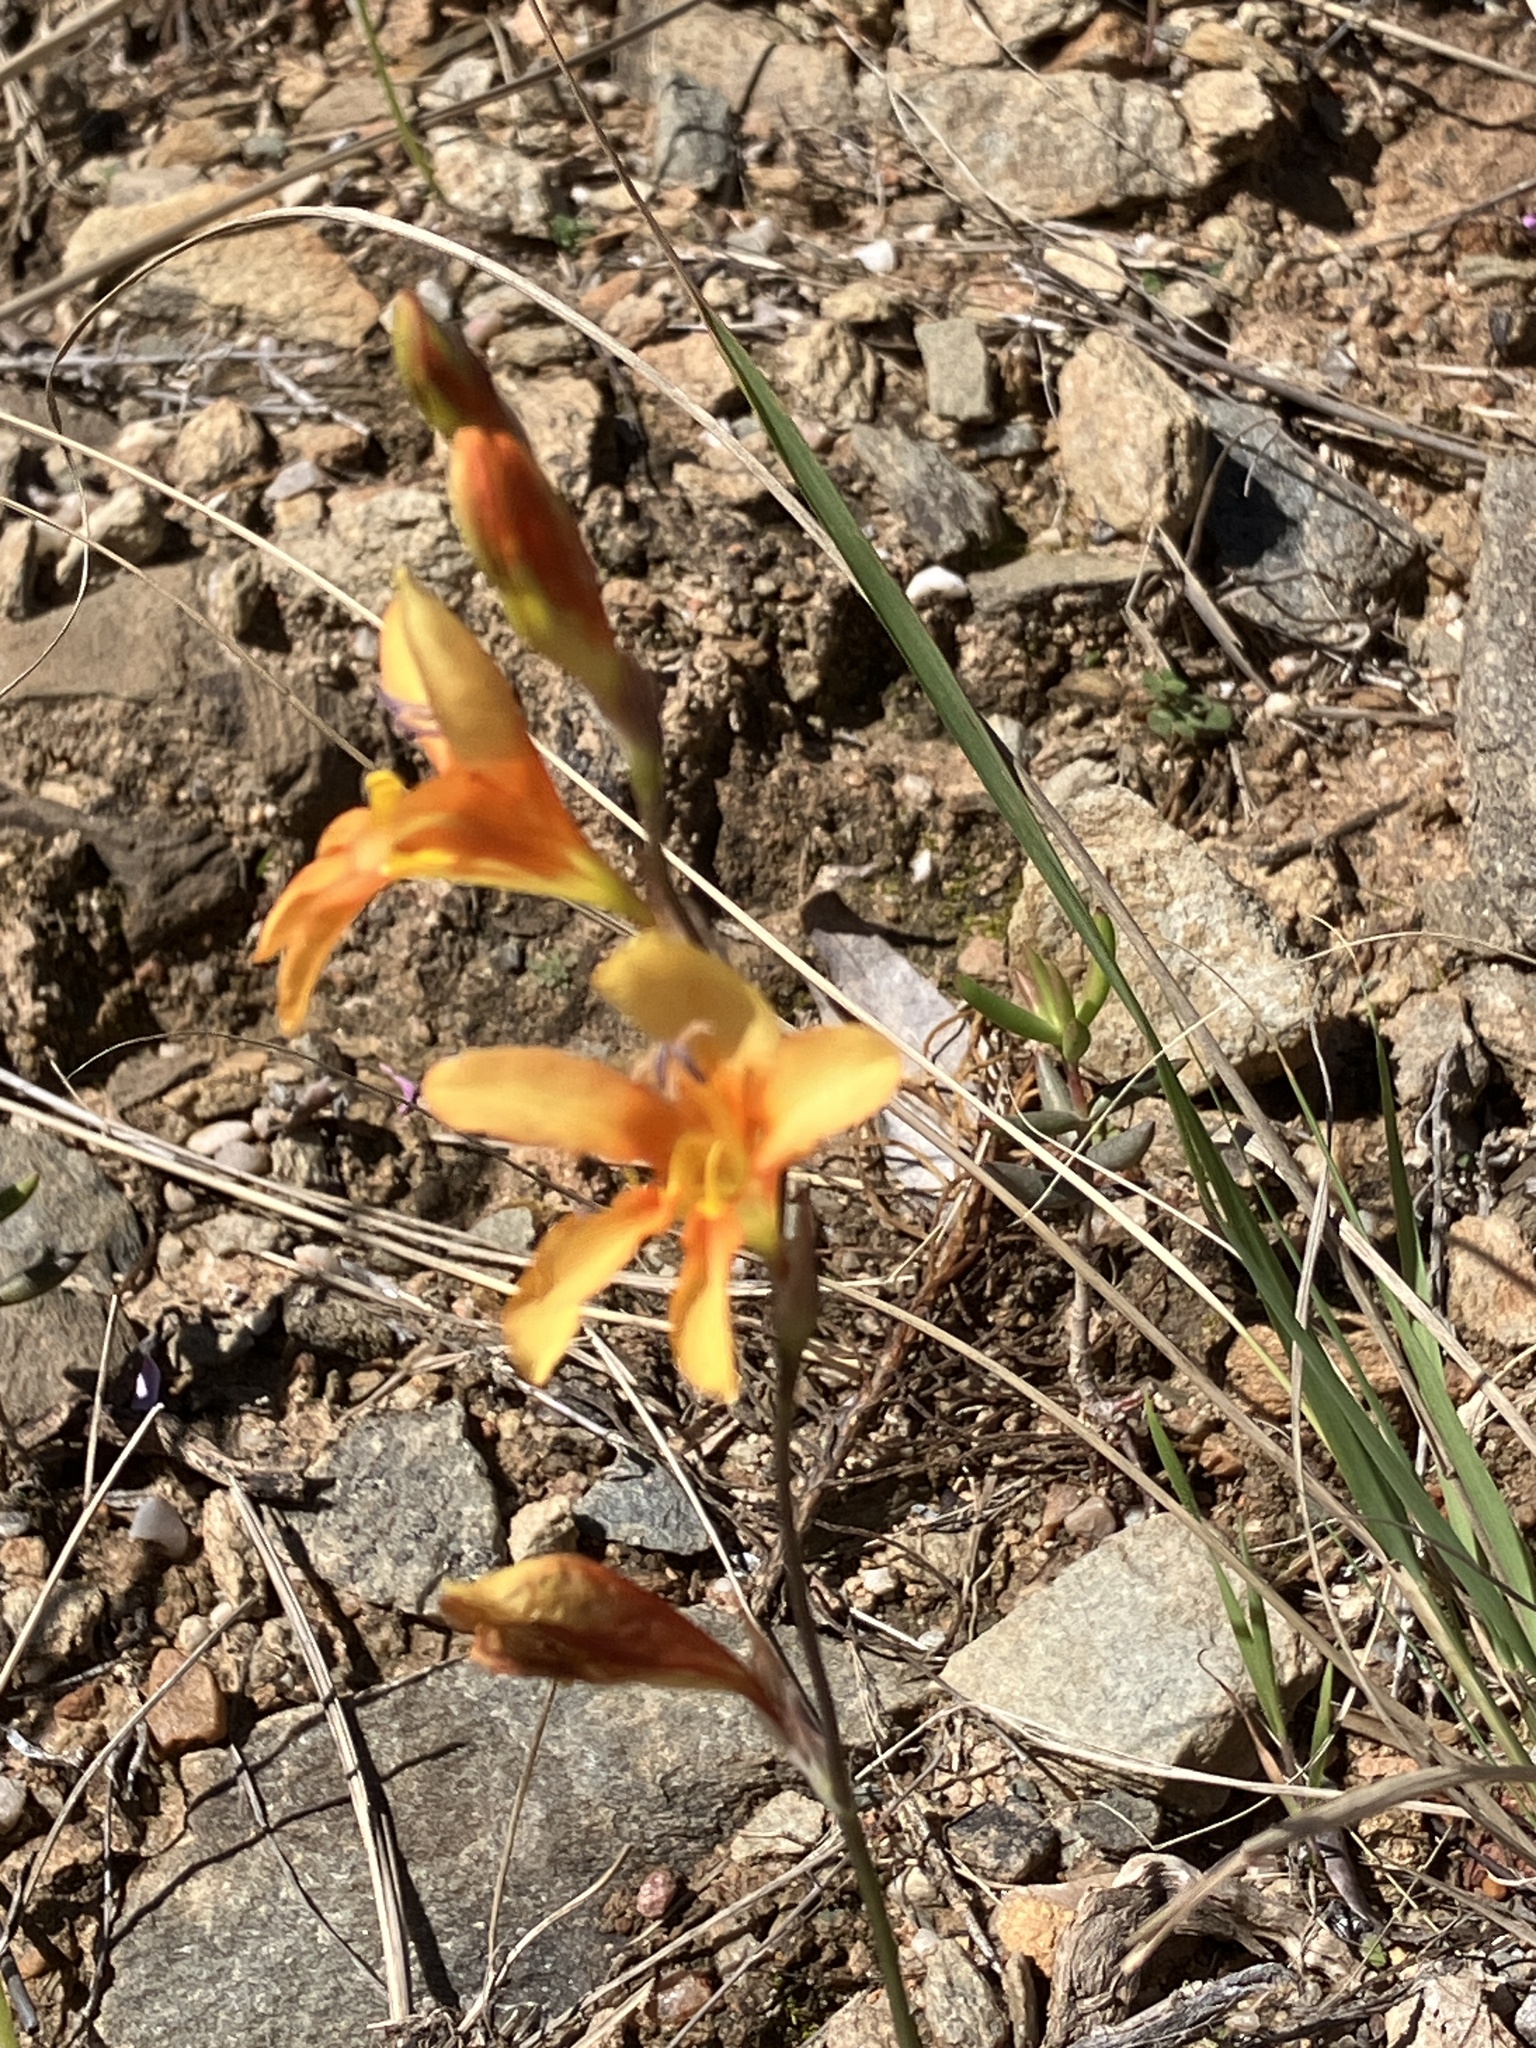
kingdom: Plantae
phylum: Tracheophyta
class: Liliopsida
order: Asparagales
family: Iridaceae
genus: Tritonia
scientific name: Tritonia securigera
